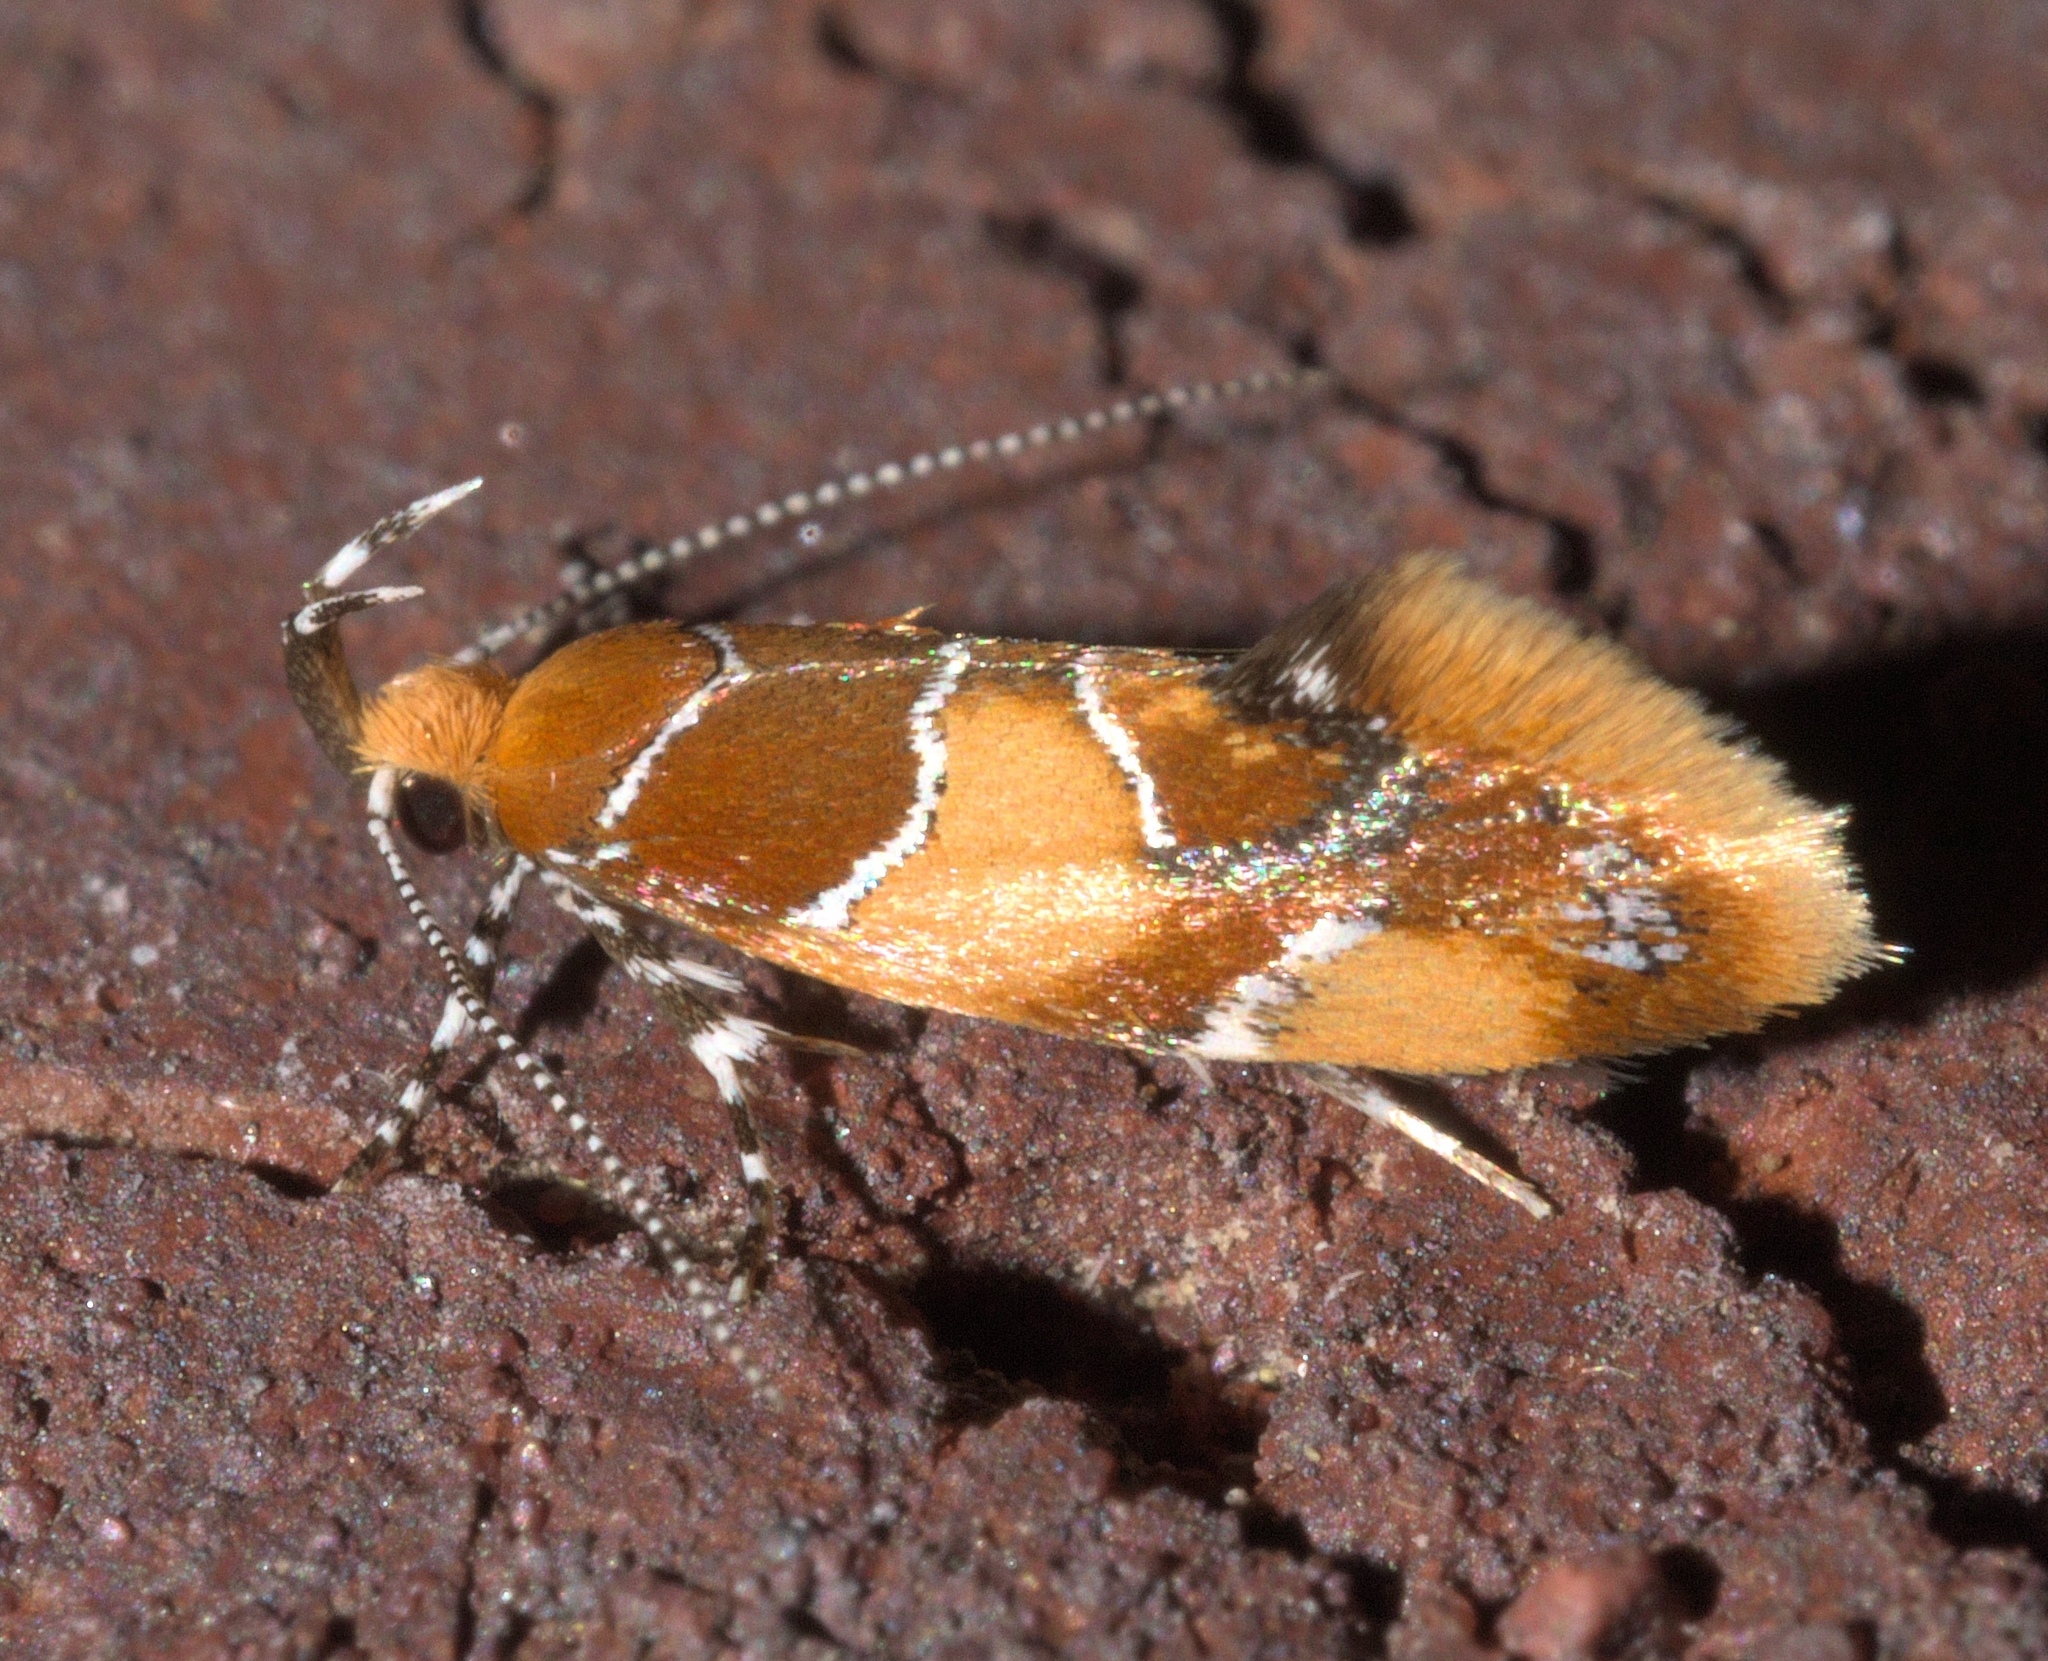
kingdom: Animalia
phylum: Arthropoda
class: Insecta
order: Lepidoptera
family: Oecophoridae
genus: Callima
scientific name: Callima argenticinctella
